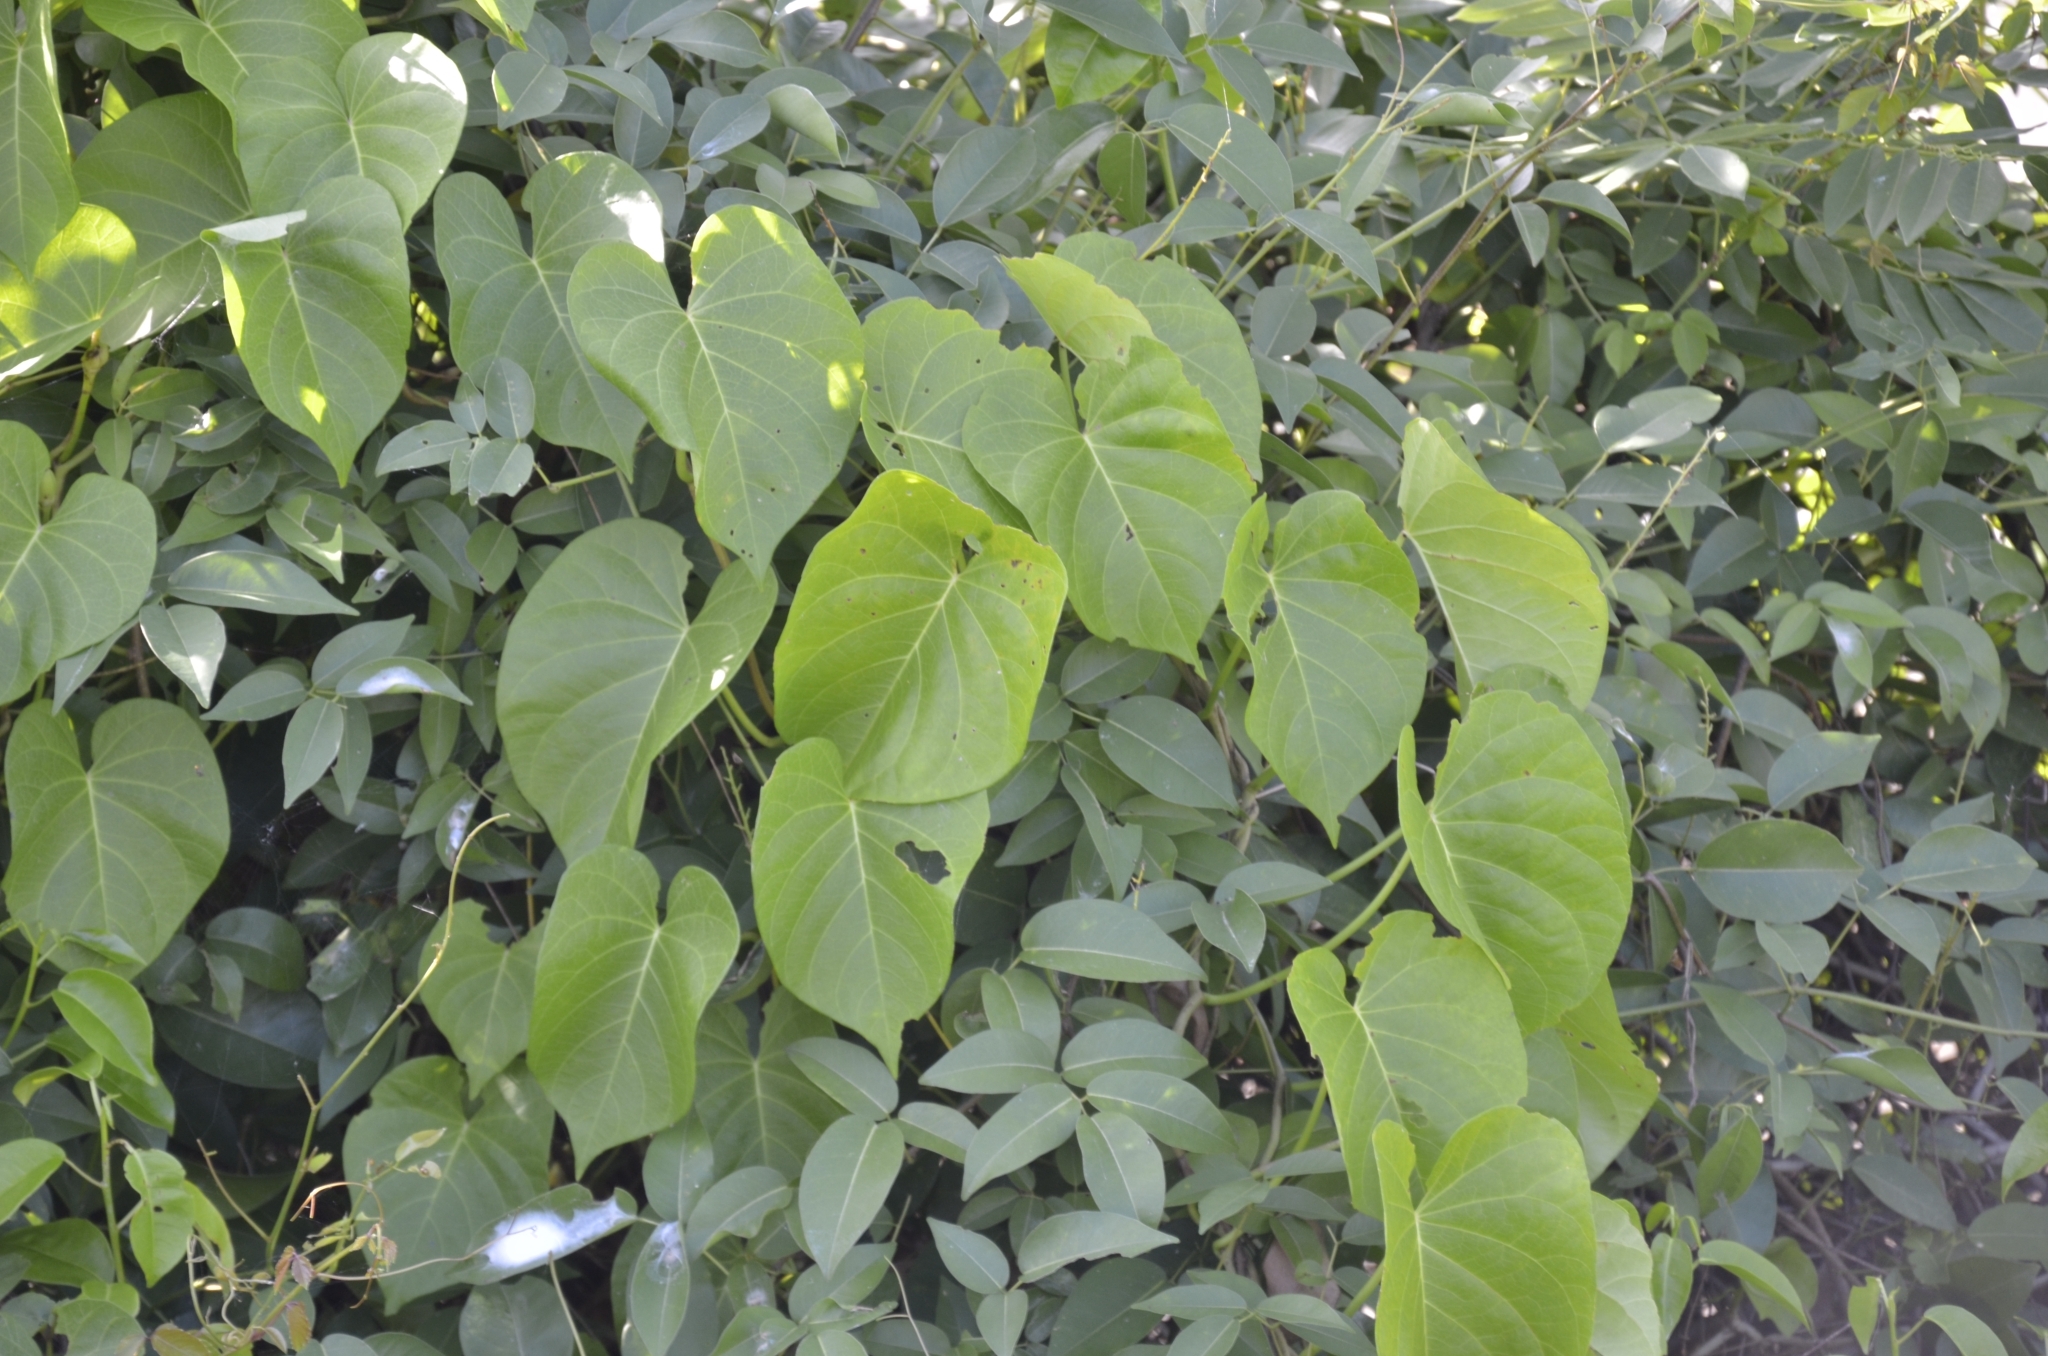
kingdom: Plantae
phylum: Tracheophyta
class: Magnoliopsida
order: Solanales
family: Convolvulaceae
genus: Ipomoea
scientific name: Ipomoea violacea
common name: Beach moonflower
